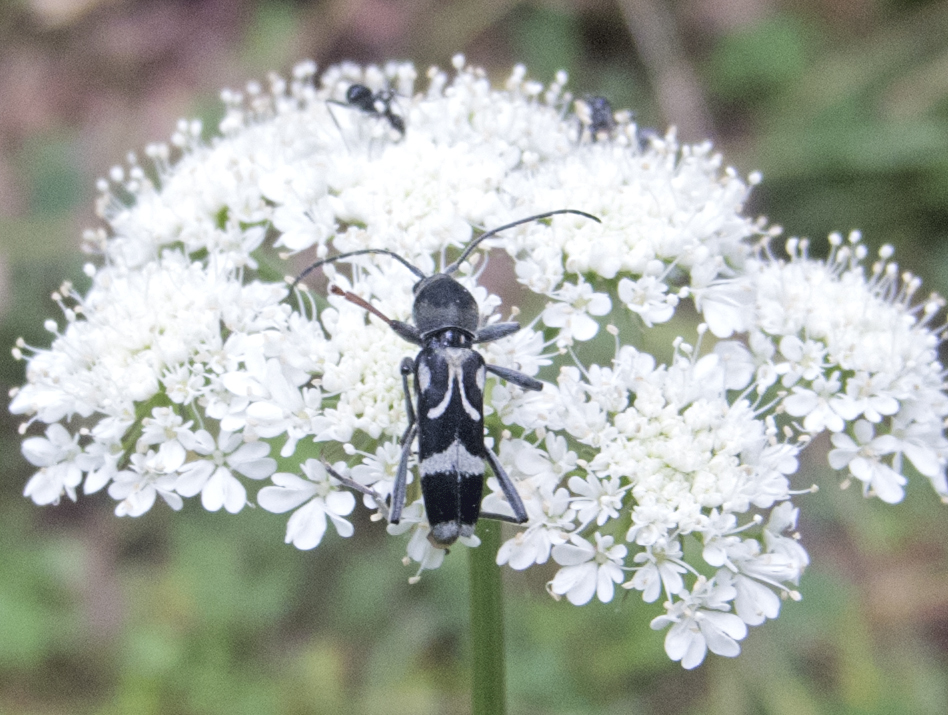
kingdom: Animalia
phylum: Arthropoda
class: Insecta
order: Coleoptera
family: Cerambycidae
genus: Chlorophorus
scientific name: Chlorophorus figuratus
